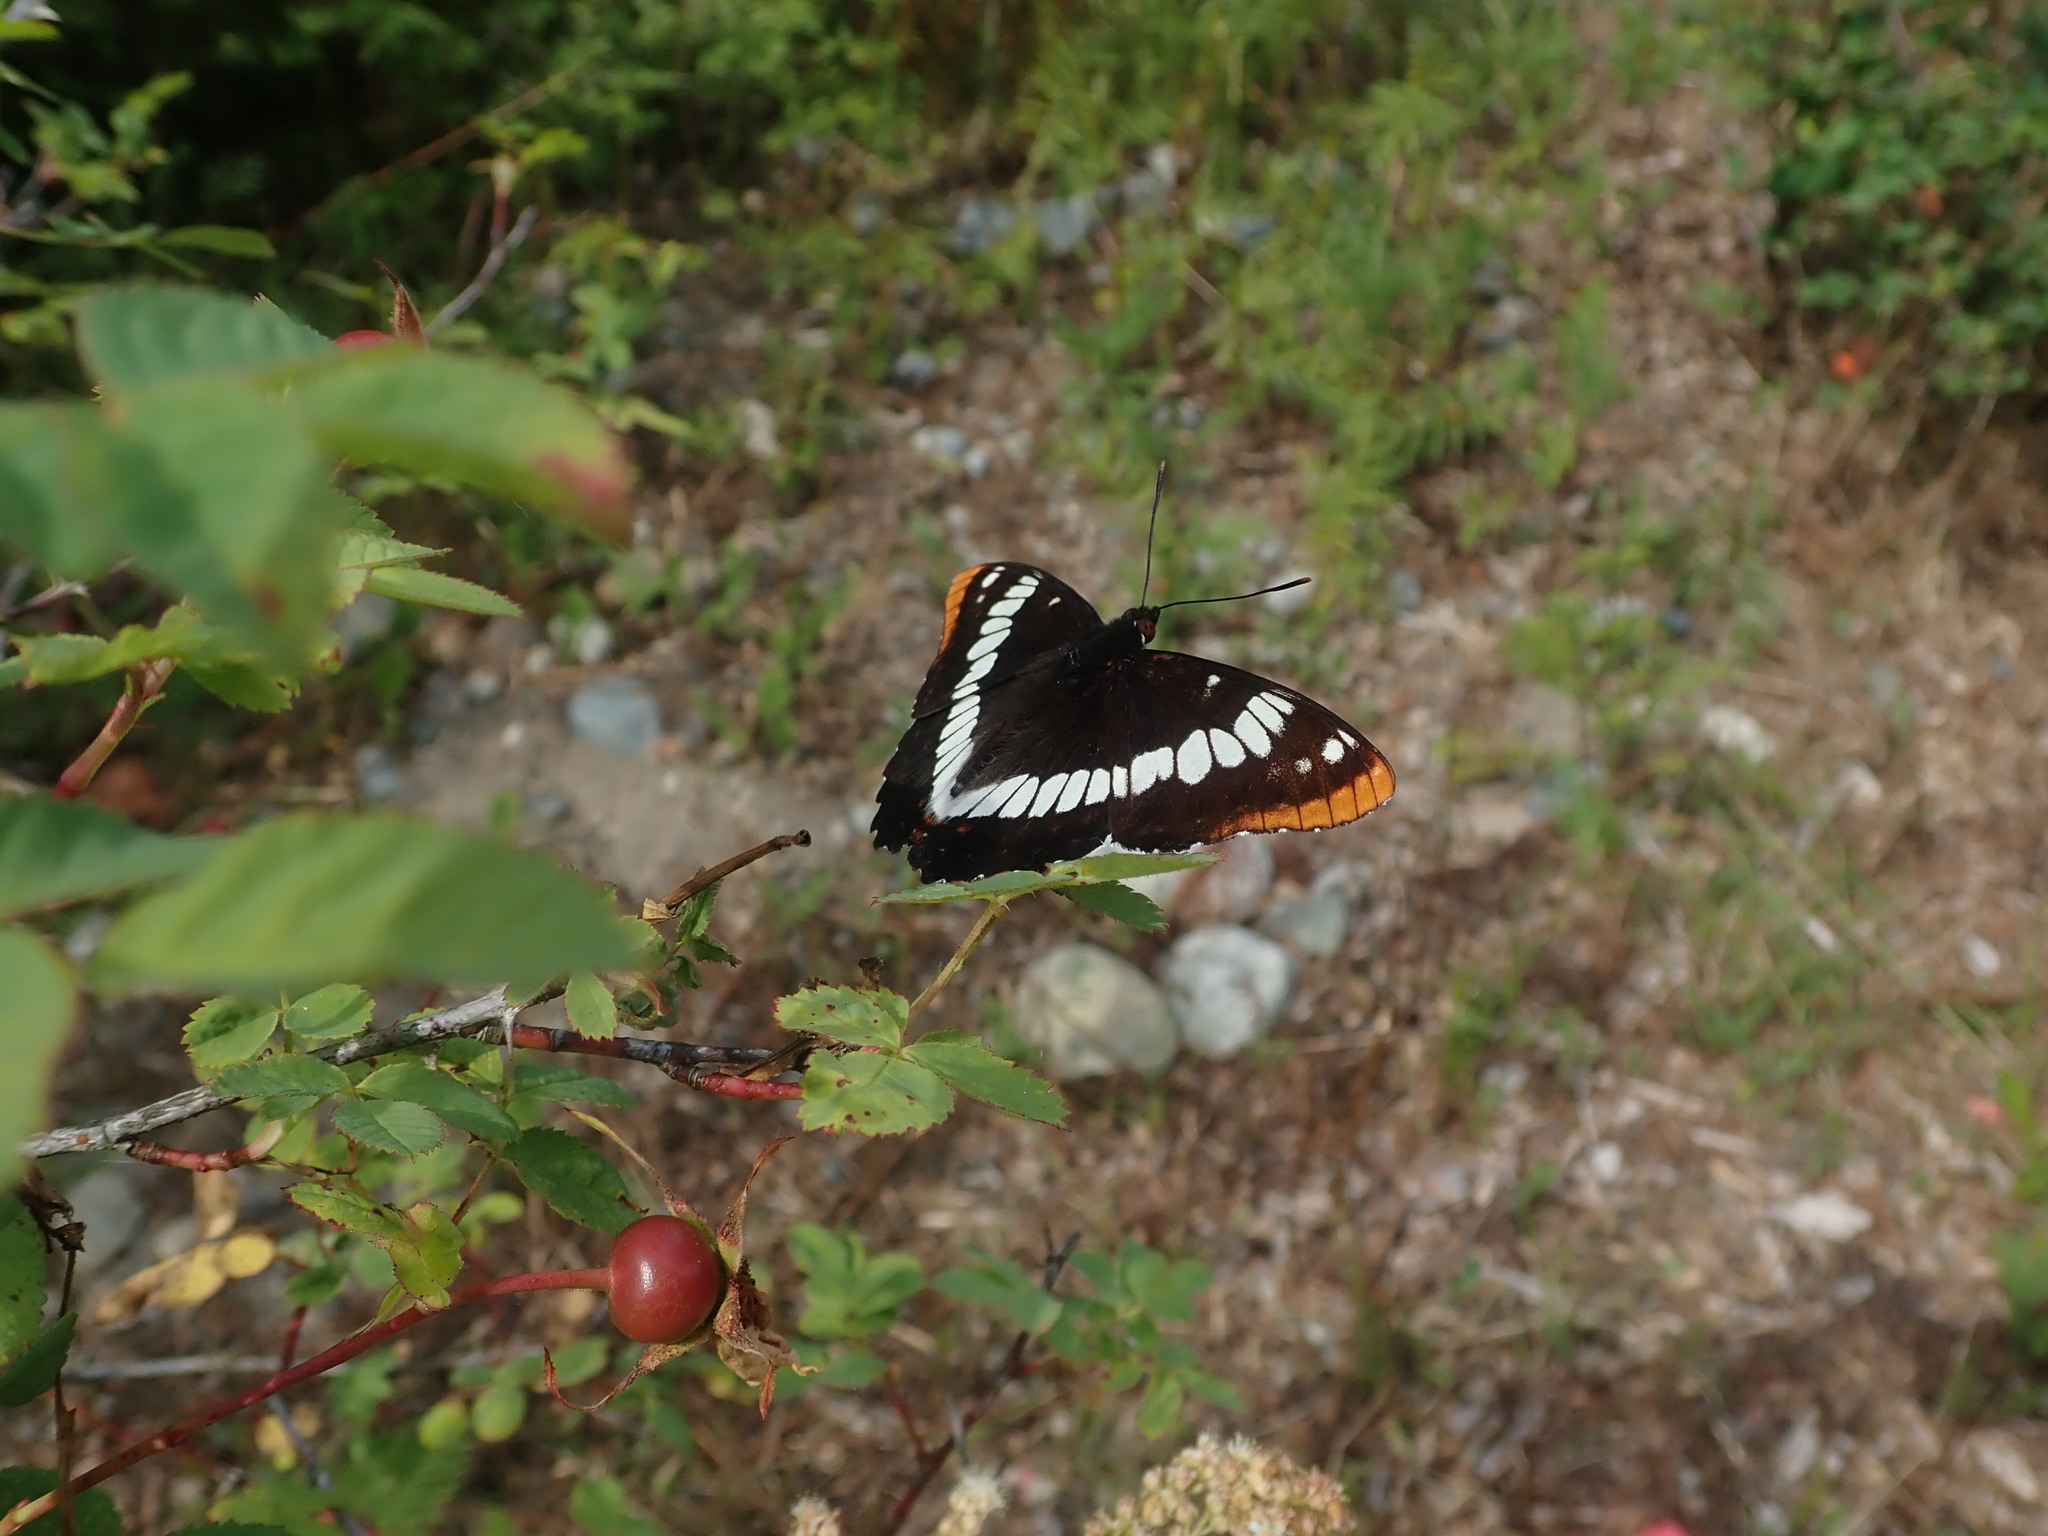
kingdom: Animalia
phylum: Arthropoda
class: Insecta
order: Lepidoptera
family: Nymphalidae
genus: Limenitis
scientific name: Limenitis lorquini
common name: Lorquin's admiral
